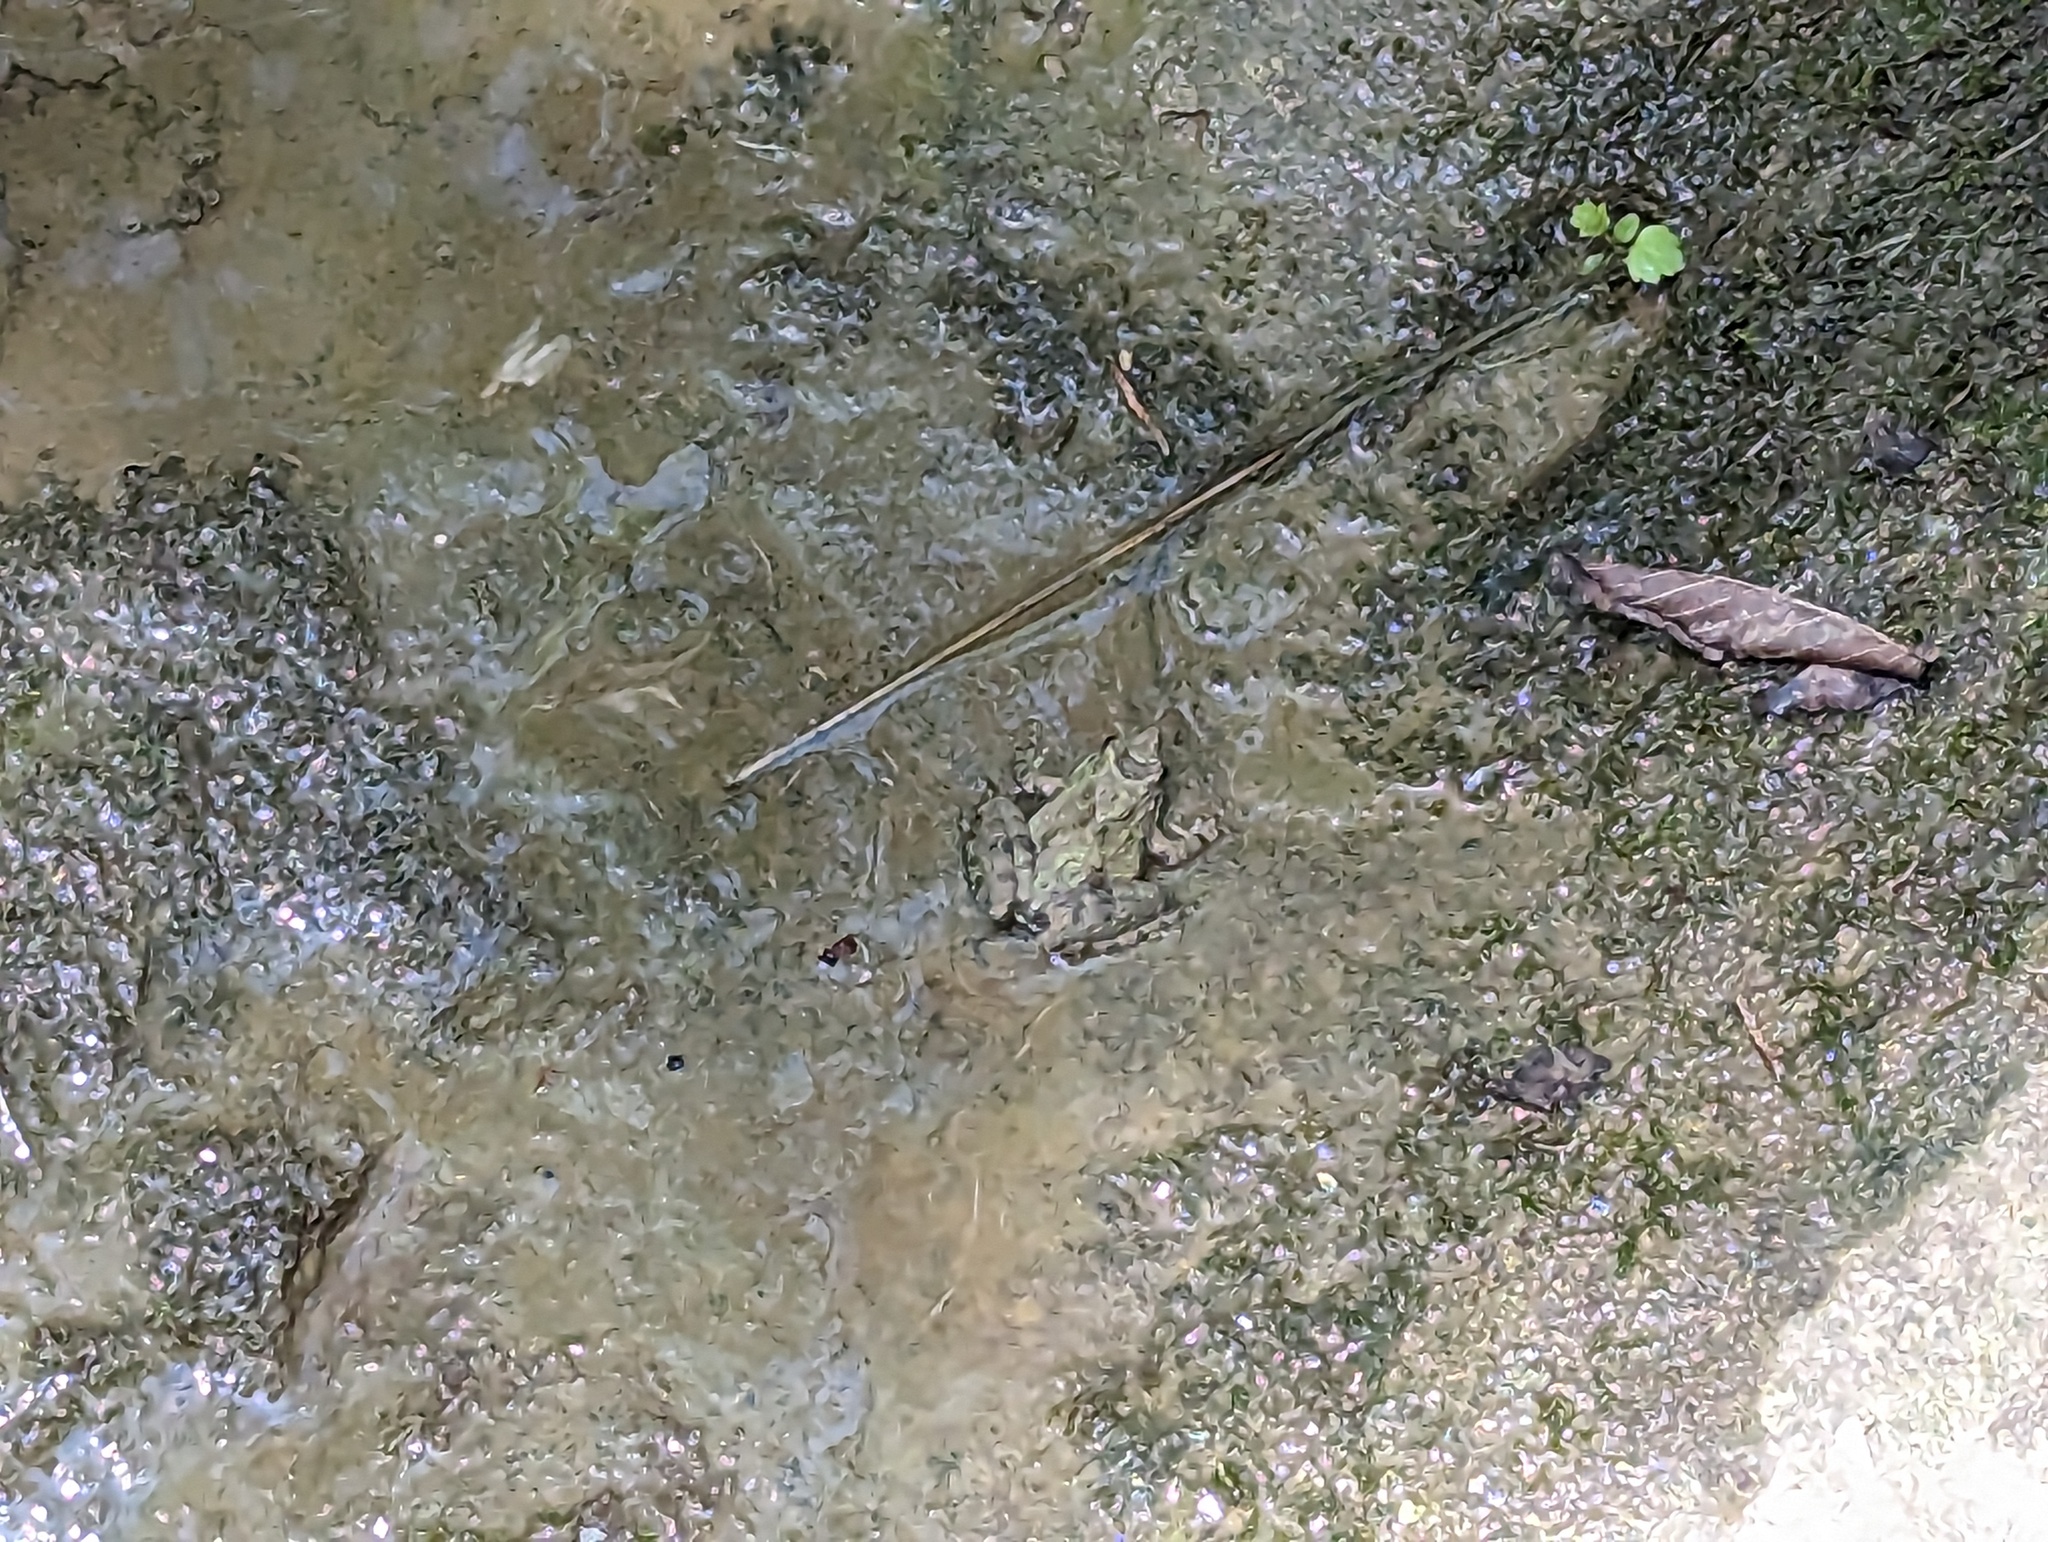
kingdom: Animalia
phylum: Chordata
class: Amphibia
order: Anura
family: Hylidae
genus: Acris
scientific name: Acris blanchardi
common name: Blanchard's cricket frog
